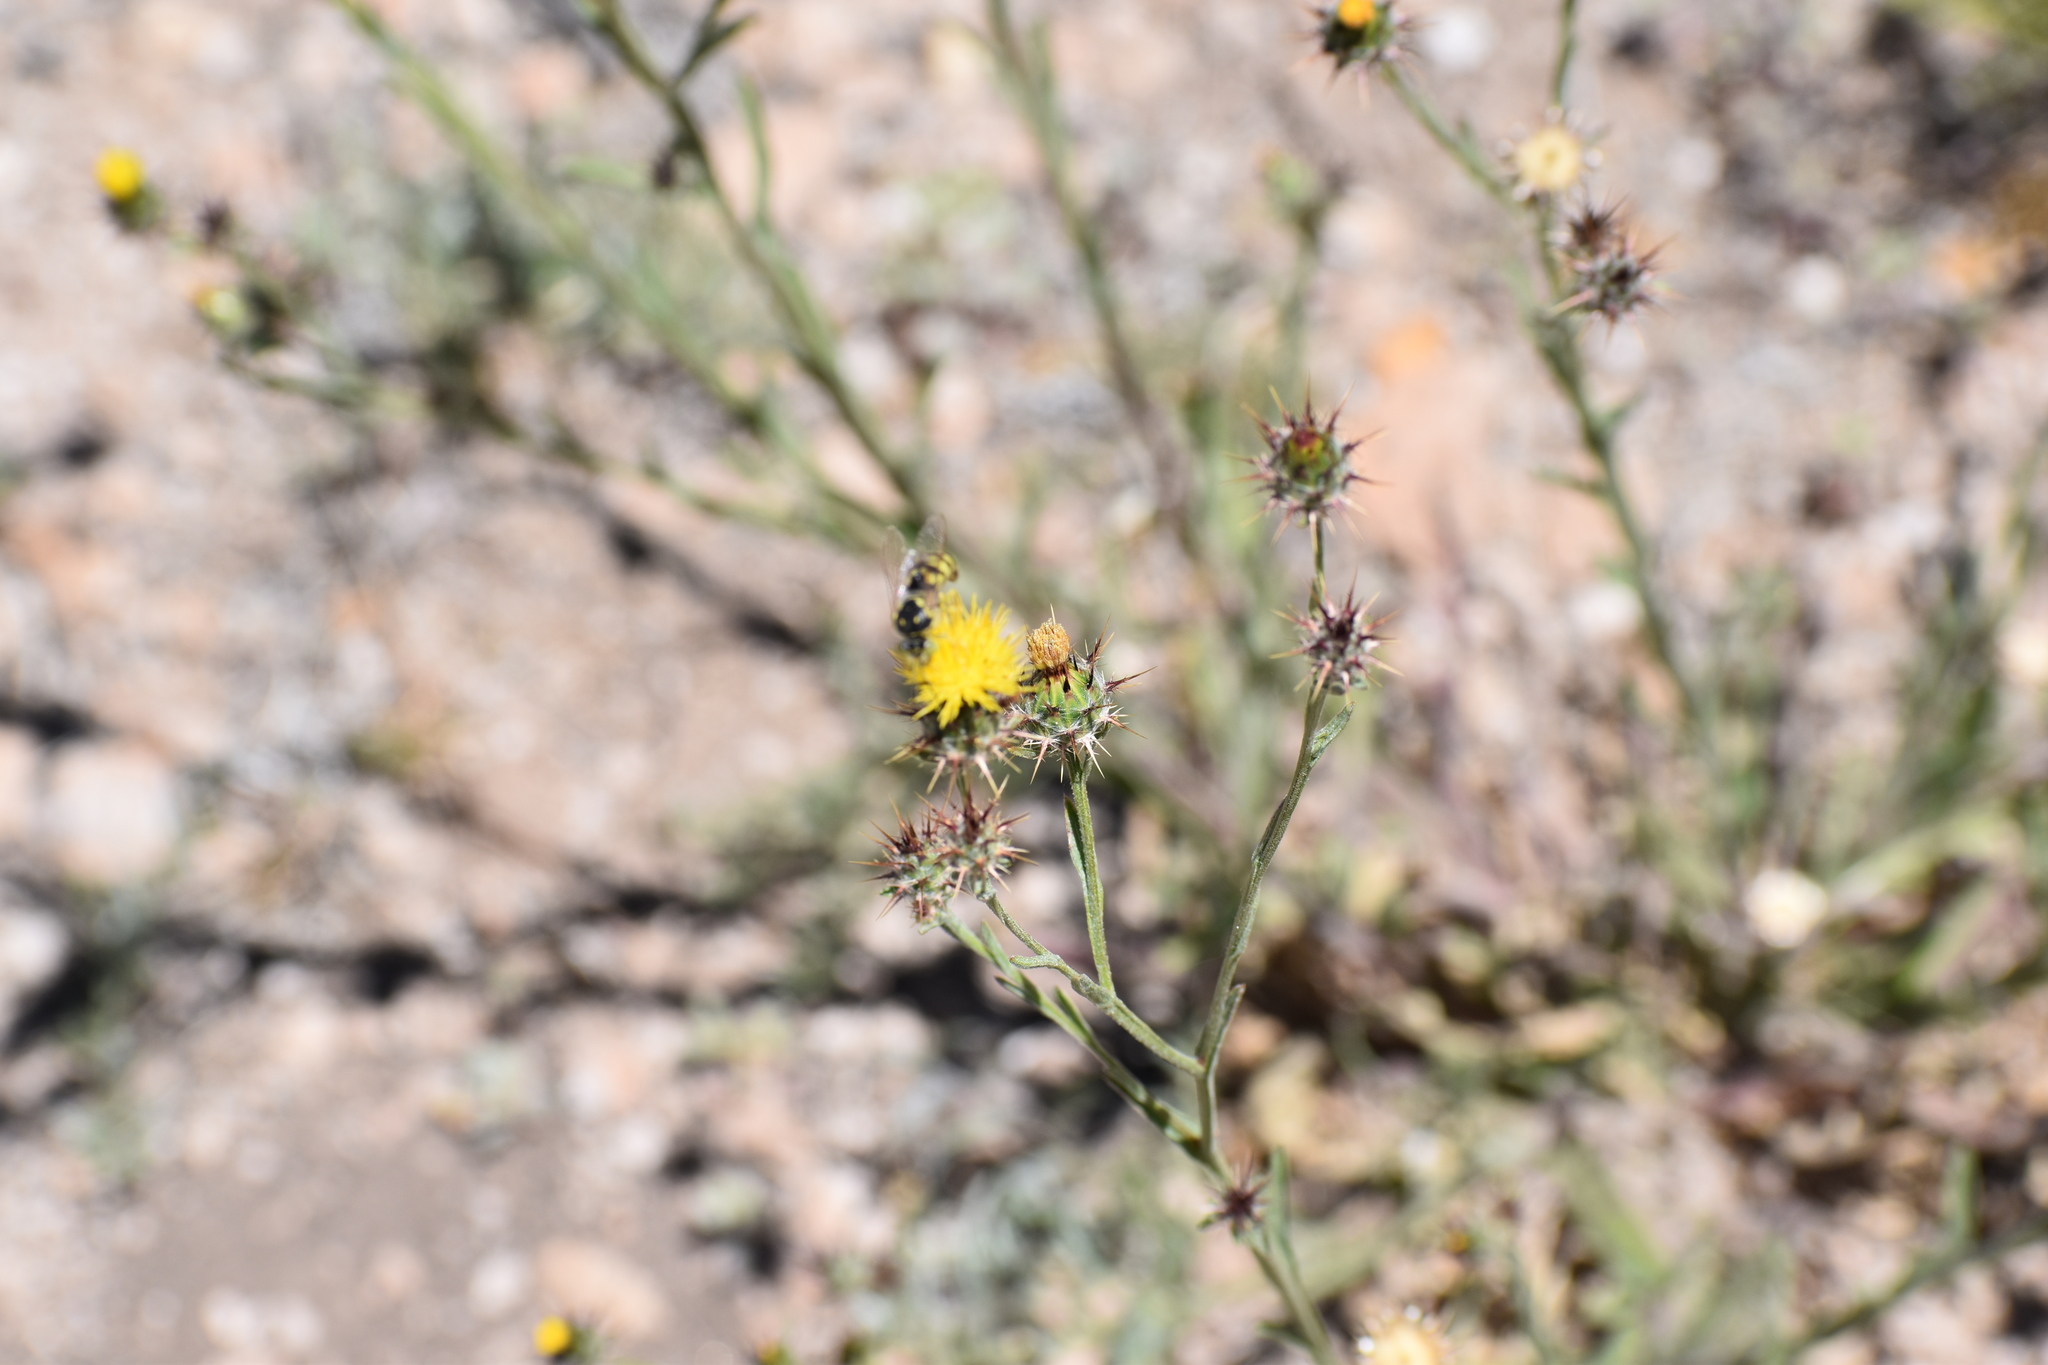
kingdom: Plantae
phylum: Tracheophyta
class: Magnoliopsida
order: Asterales
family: Asteraceae
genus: Centaurea
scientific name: Centaurea melitensis
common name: Maltese star-thistle
